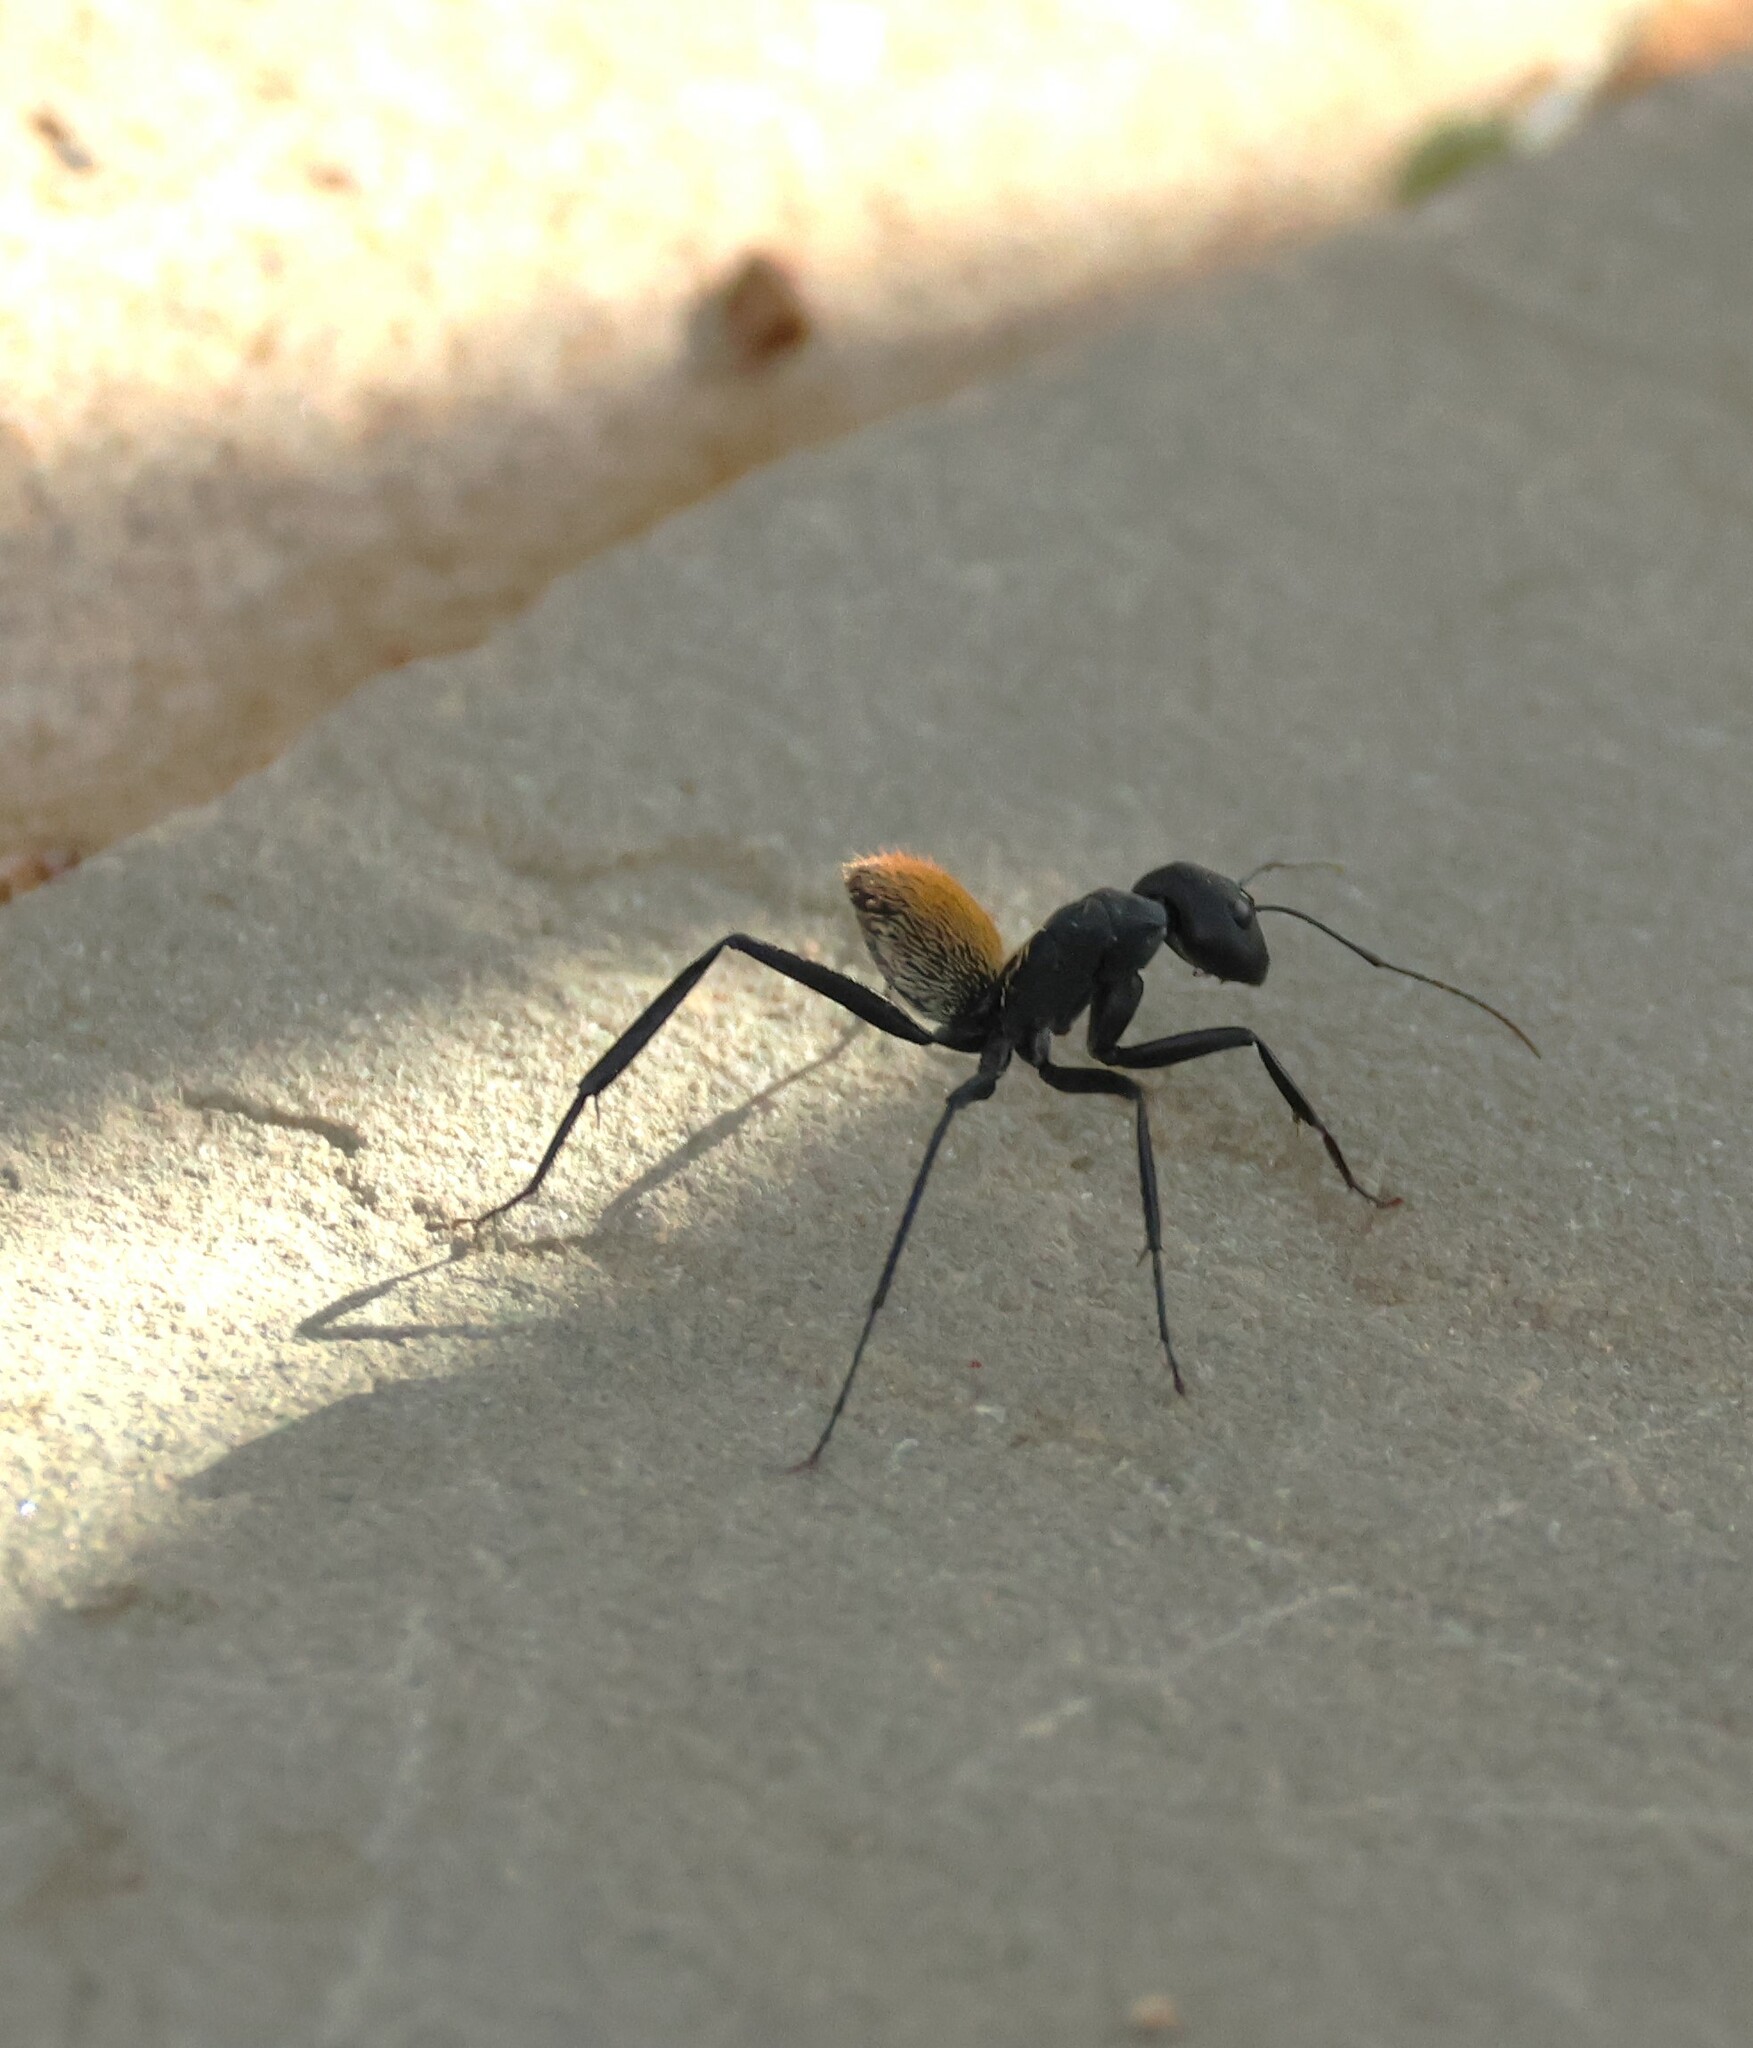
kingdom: Animalia
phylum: Arthropoda
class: Insecta
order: Hymenoptera
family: Formicidae
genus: Camponotus
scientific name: Camponotus fulvopilosus
